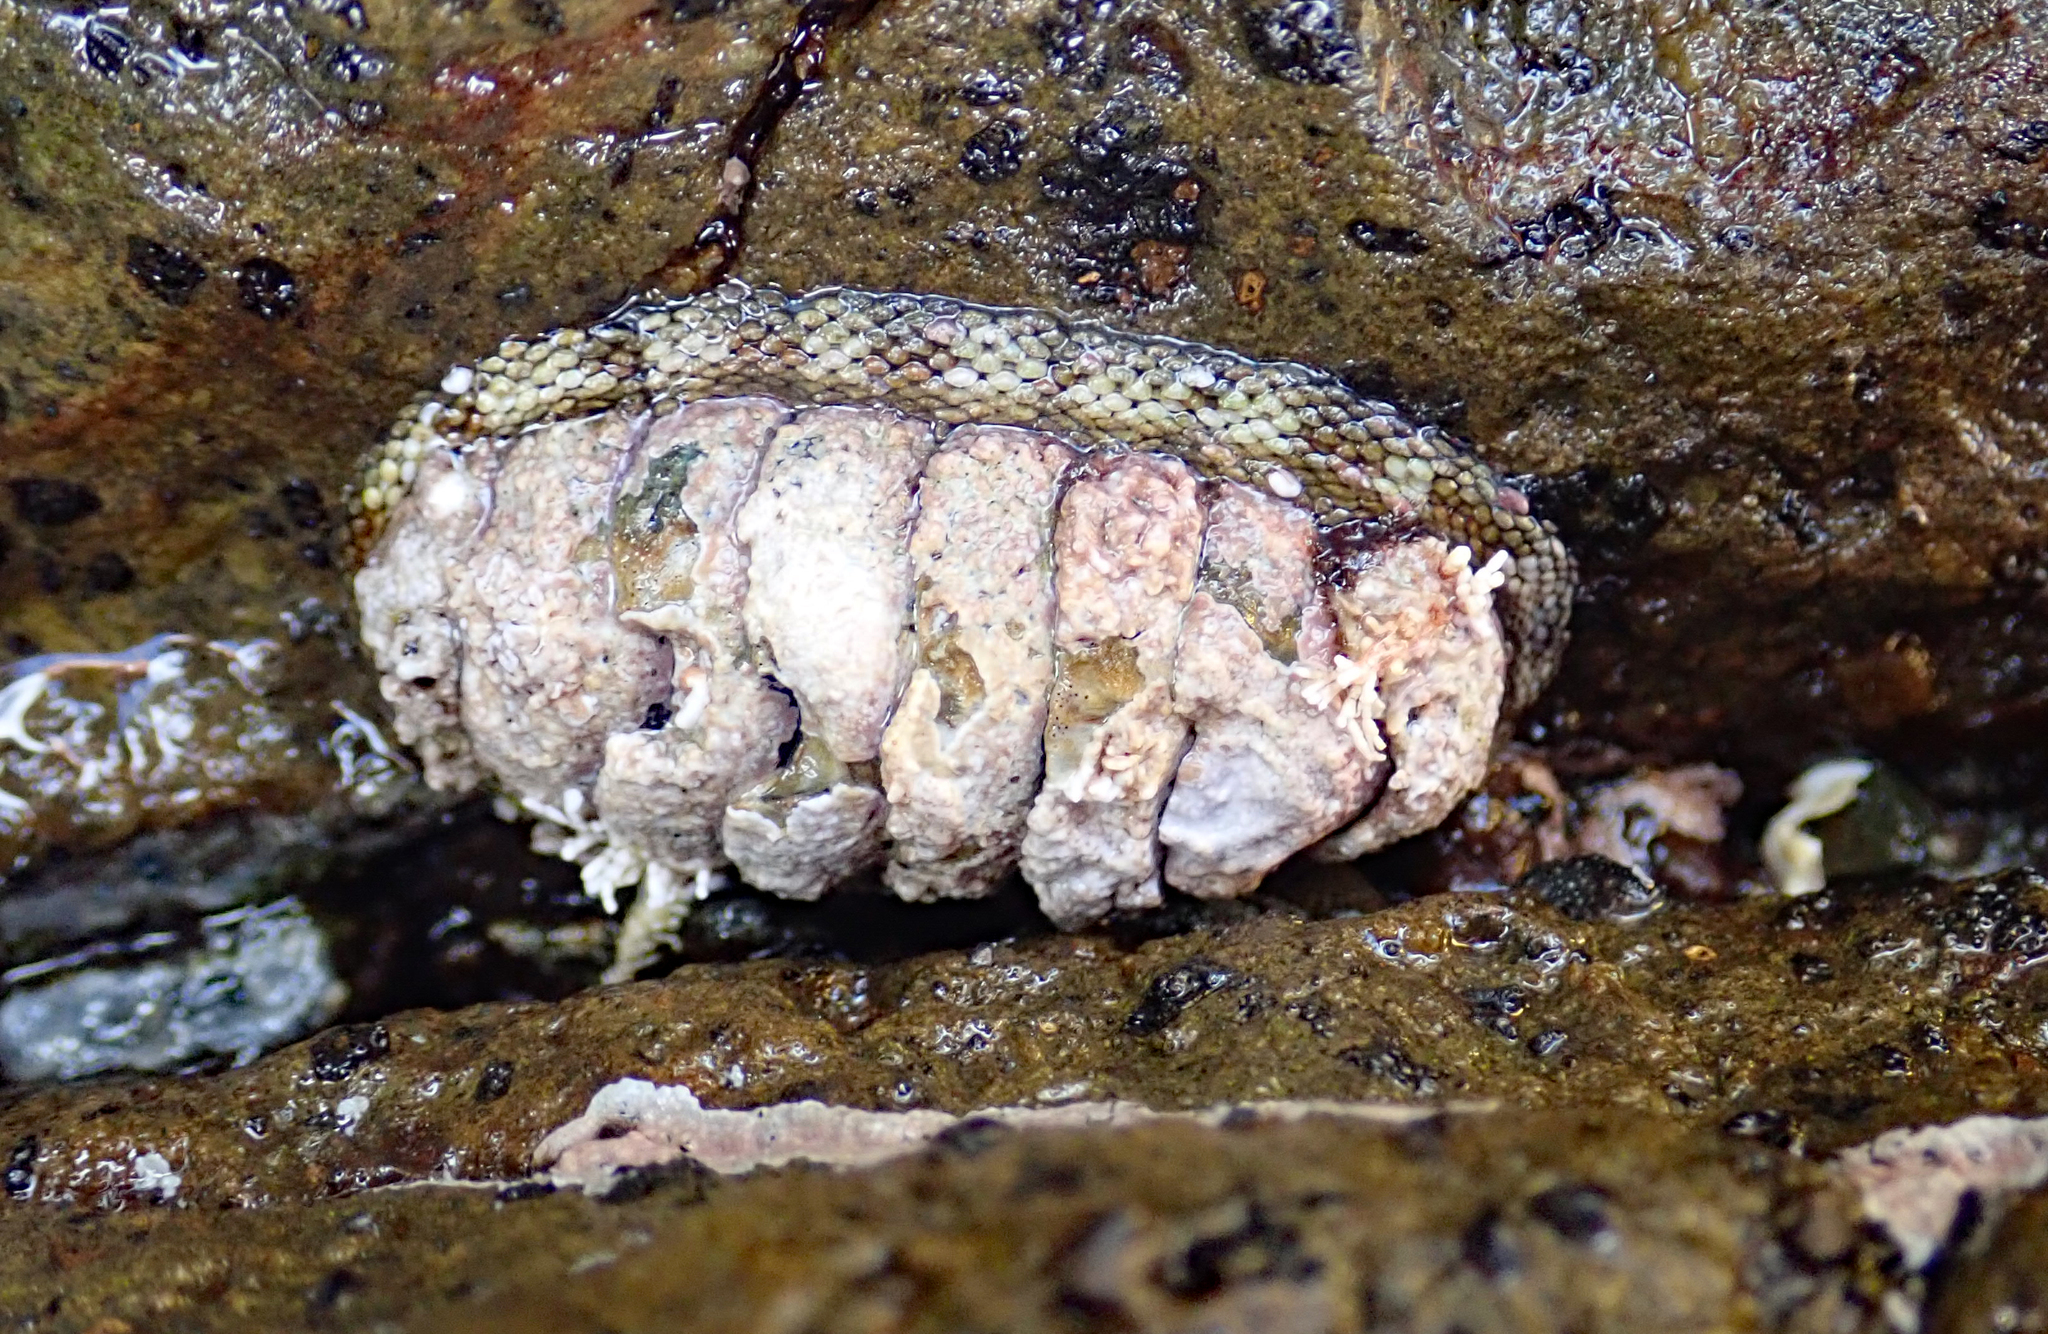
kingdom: Animalia
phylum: Mollusca
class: Polyplacophora
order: Chitonida
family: Chitonidae
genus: Sypharochiton
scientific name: Sypharochiton pelliserpentis
